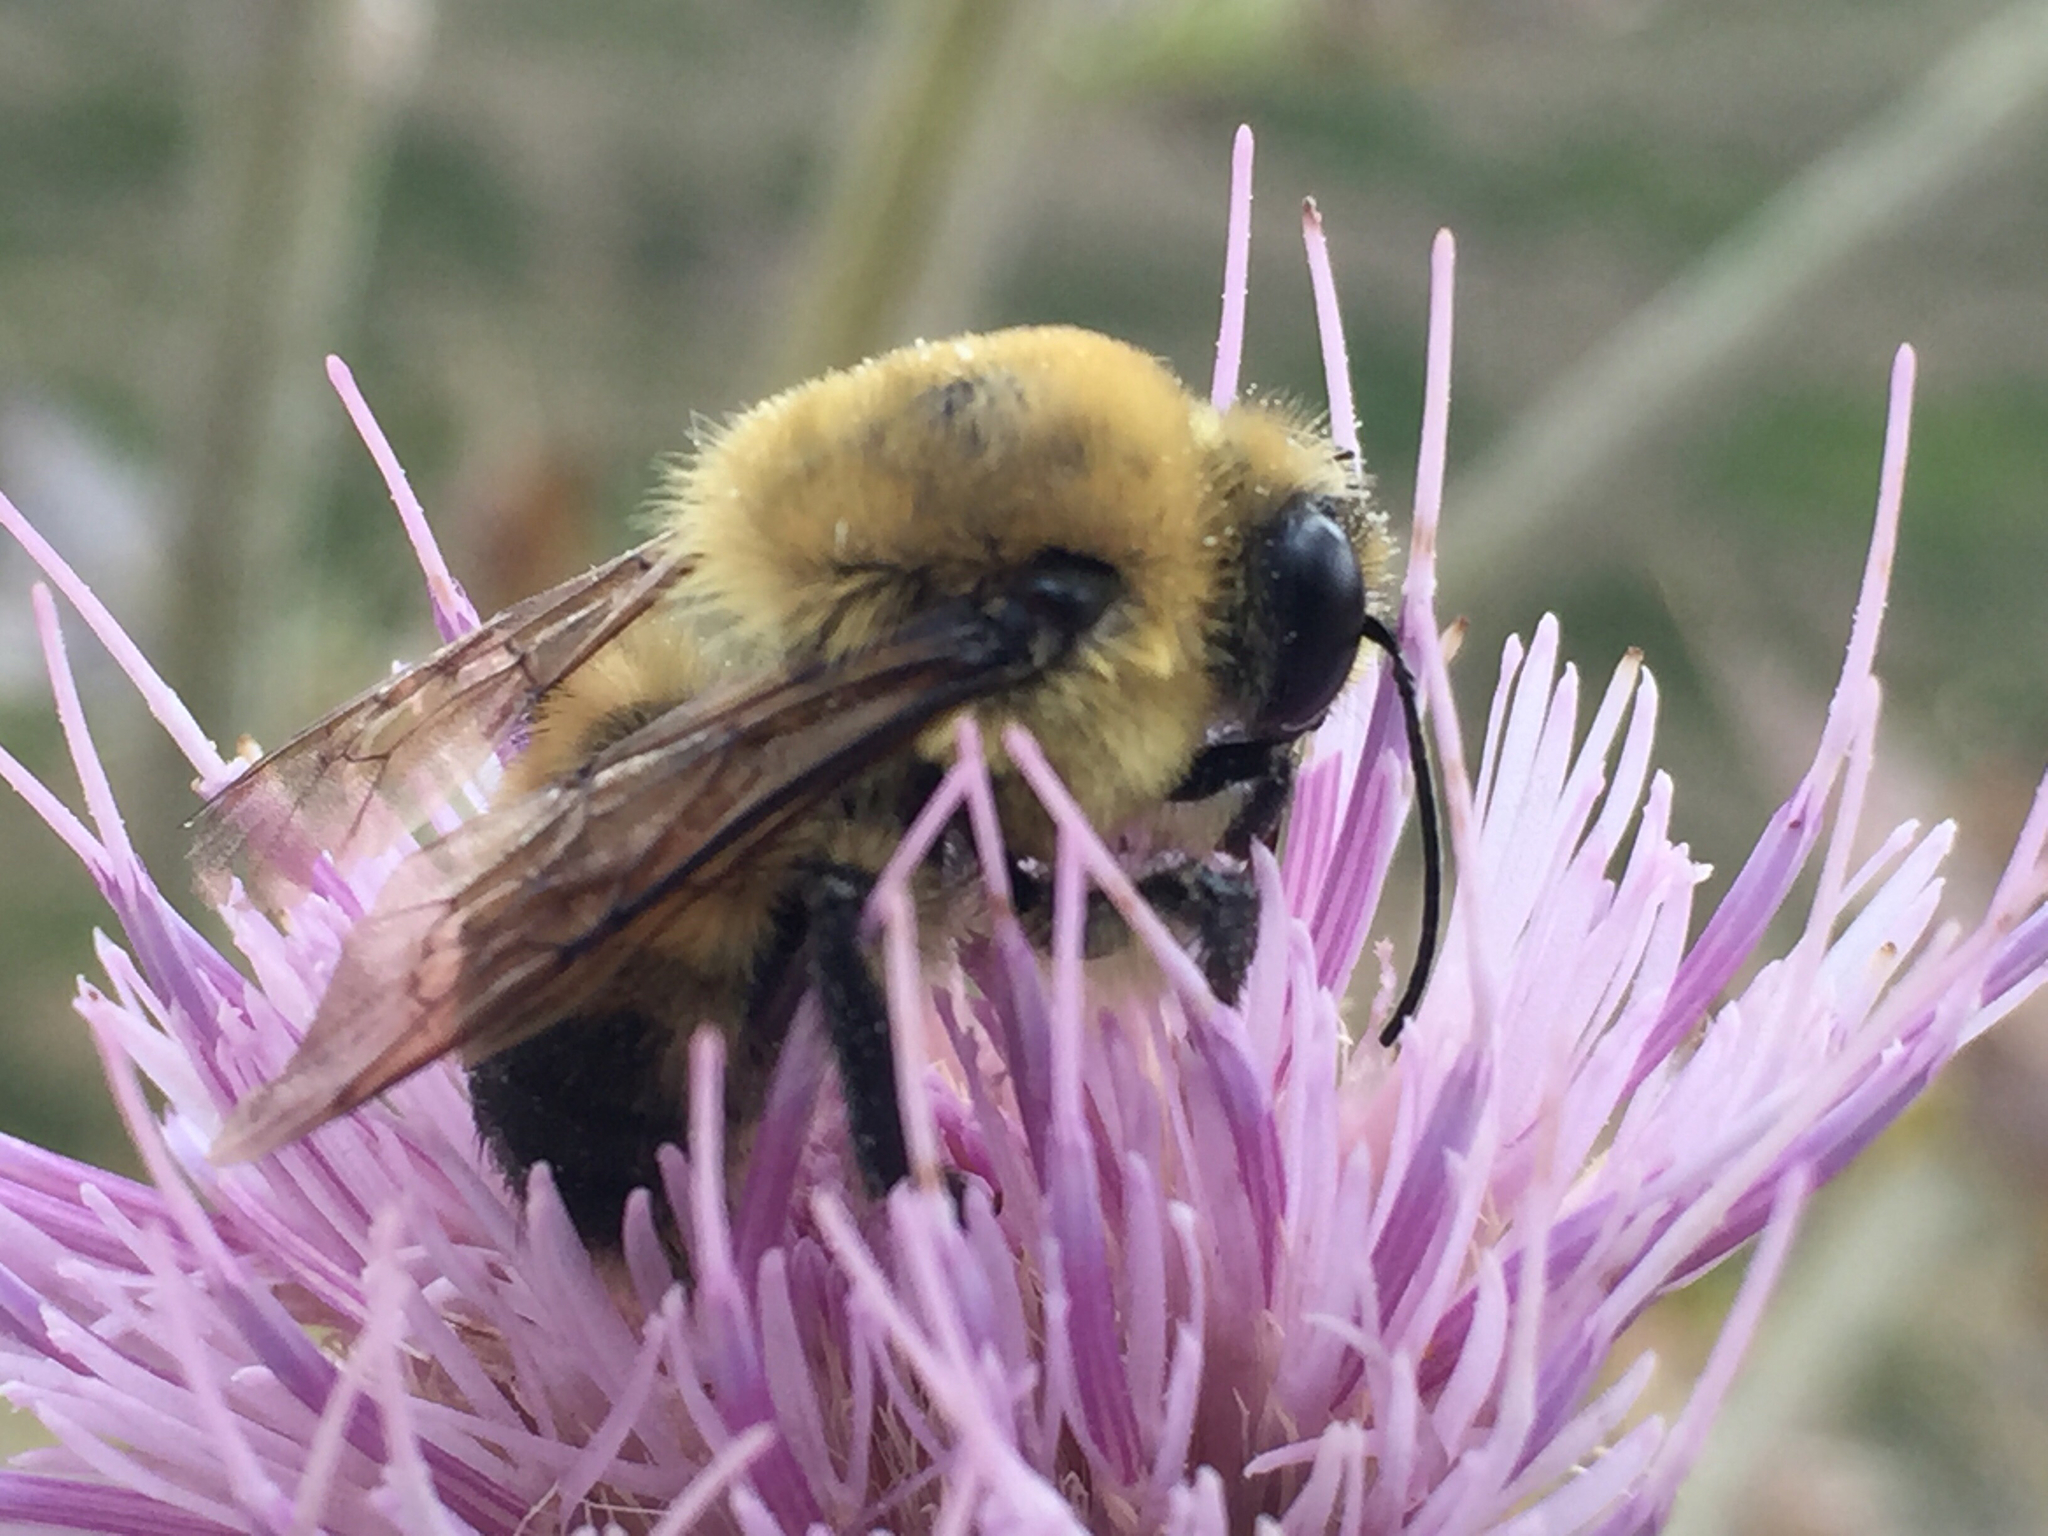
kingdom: Animalia
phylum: Arthropoda
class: Insecta
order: Hymenoptera
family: Apidae
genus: Bombus
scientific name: Bombus griseocollis
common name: Brown-belted bumble bee
